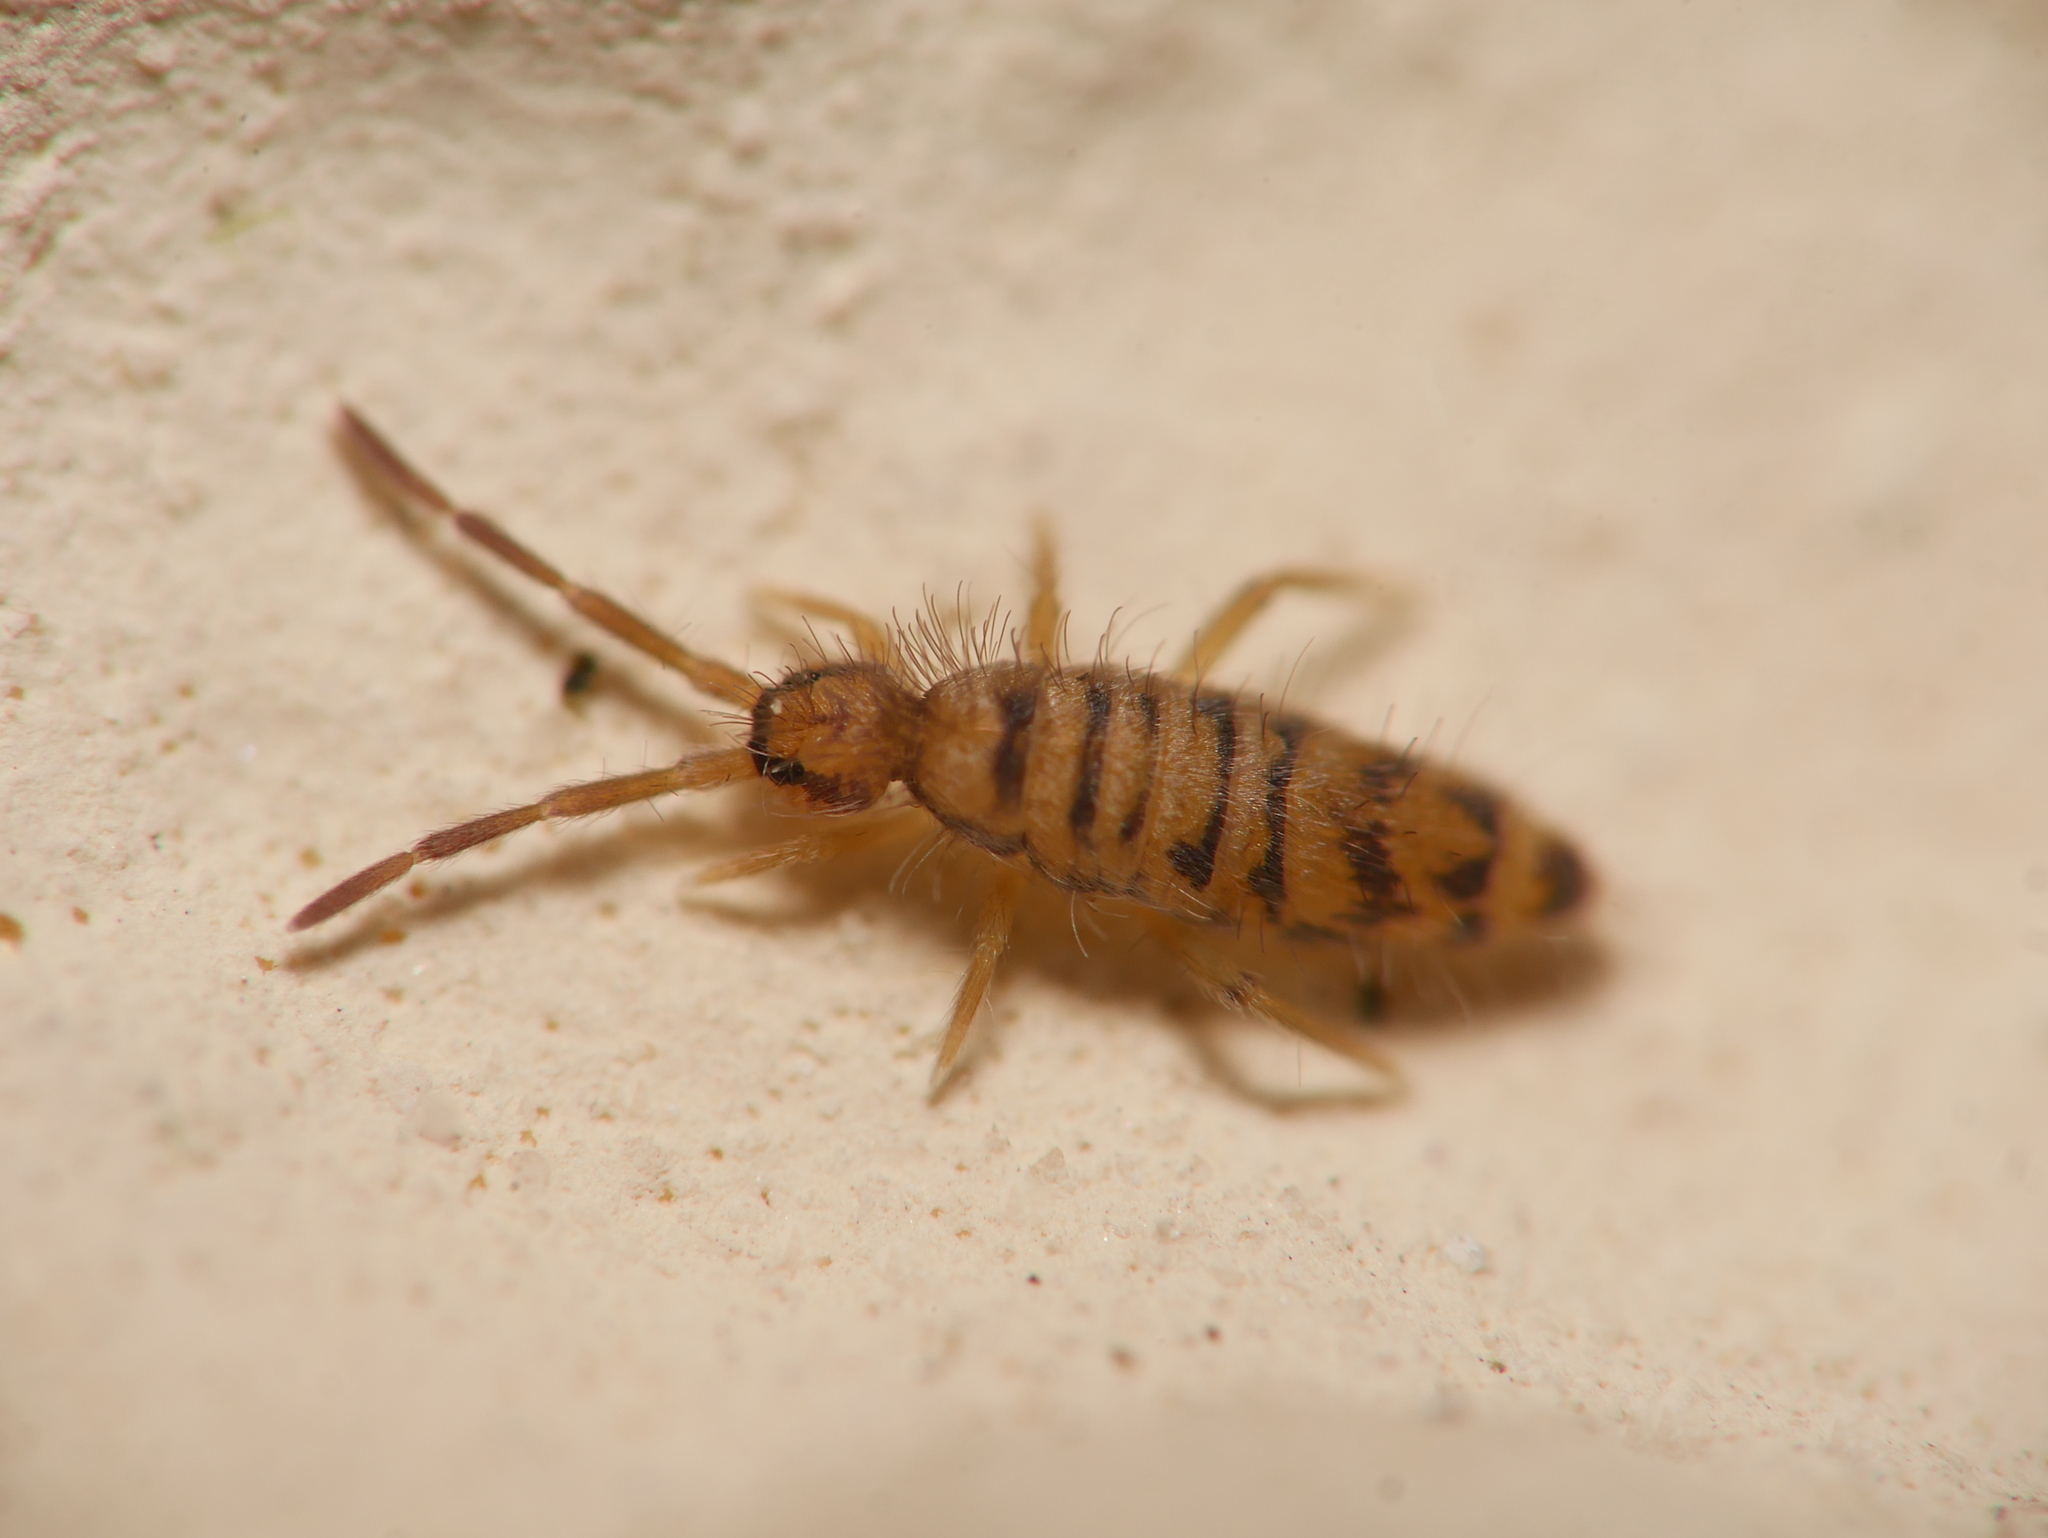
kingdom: Animalia
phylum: Arthropoda
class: Collembola
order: Entomobryomorpha
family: Entomobryidae
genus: Entomobrya
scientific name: Entomobrya multifasciata
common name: Springtail
